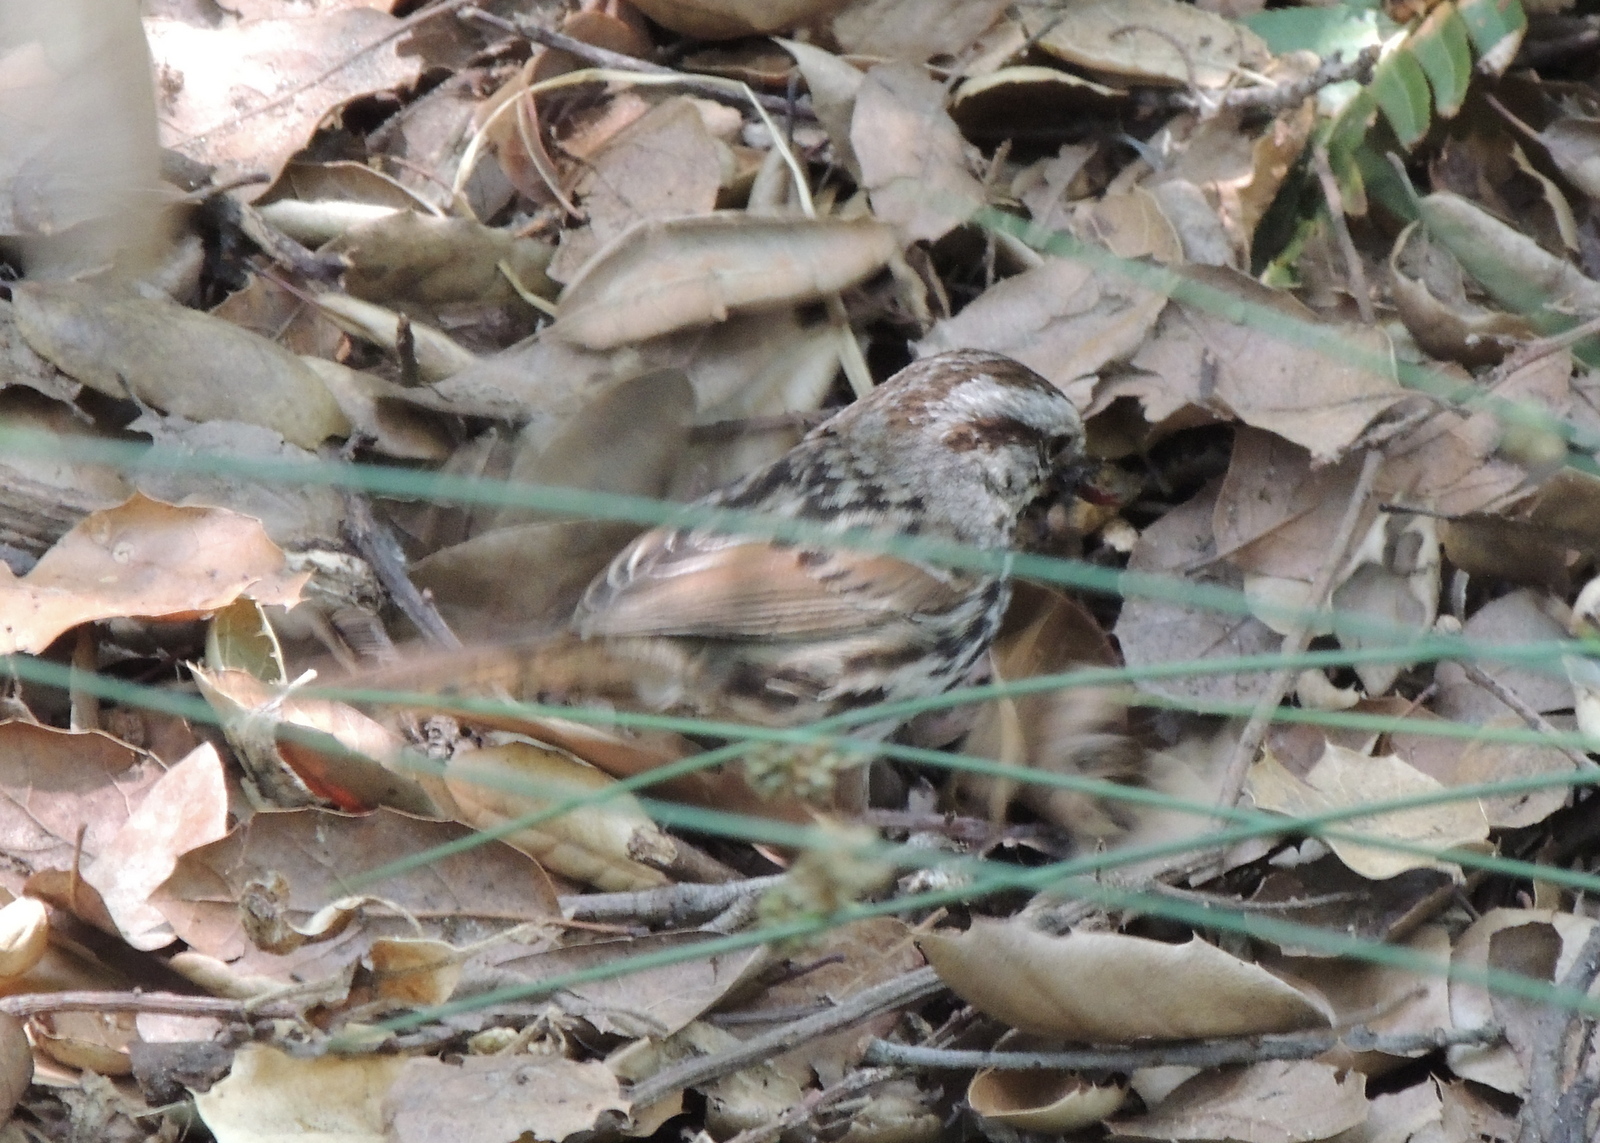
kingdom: Animalia
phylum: Chordata
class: Aves
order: Passeriformes
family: Passerellidae
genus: Melospiza
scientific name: Melospiza melodia
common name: Song sparrow
